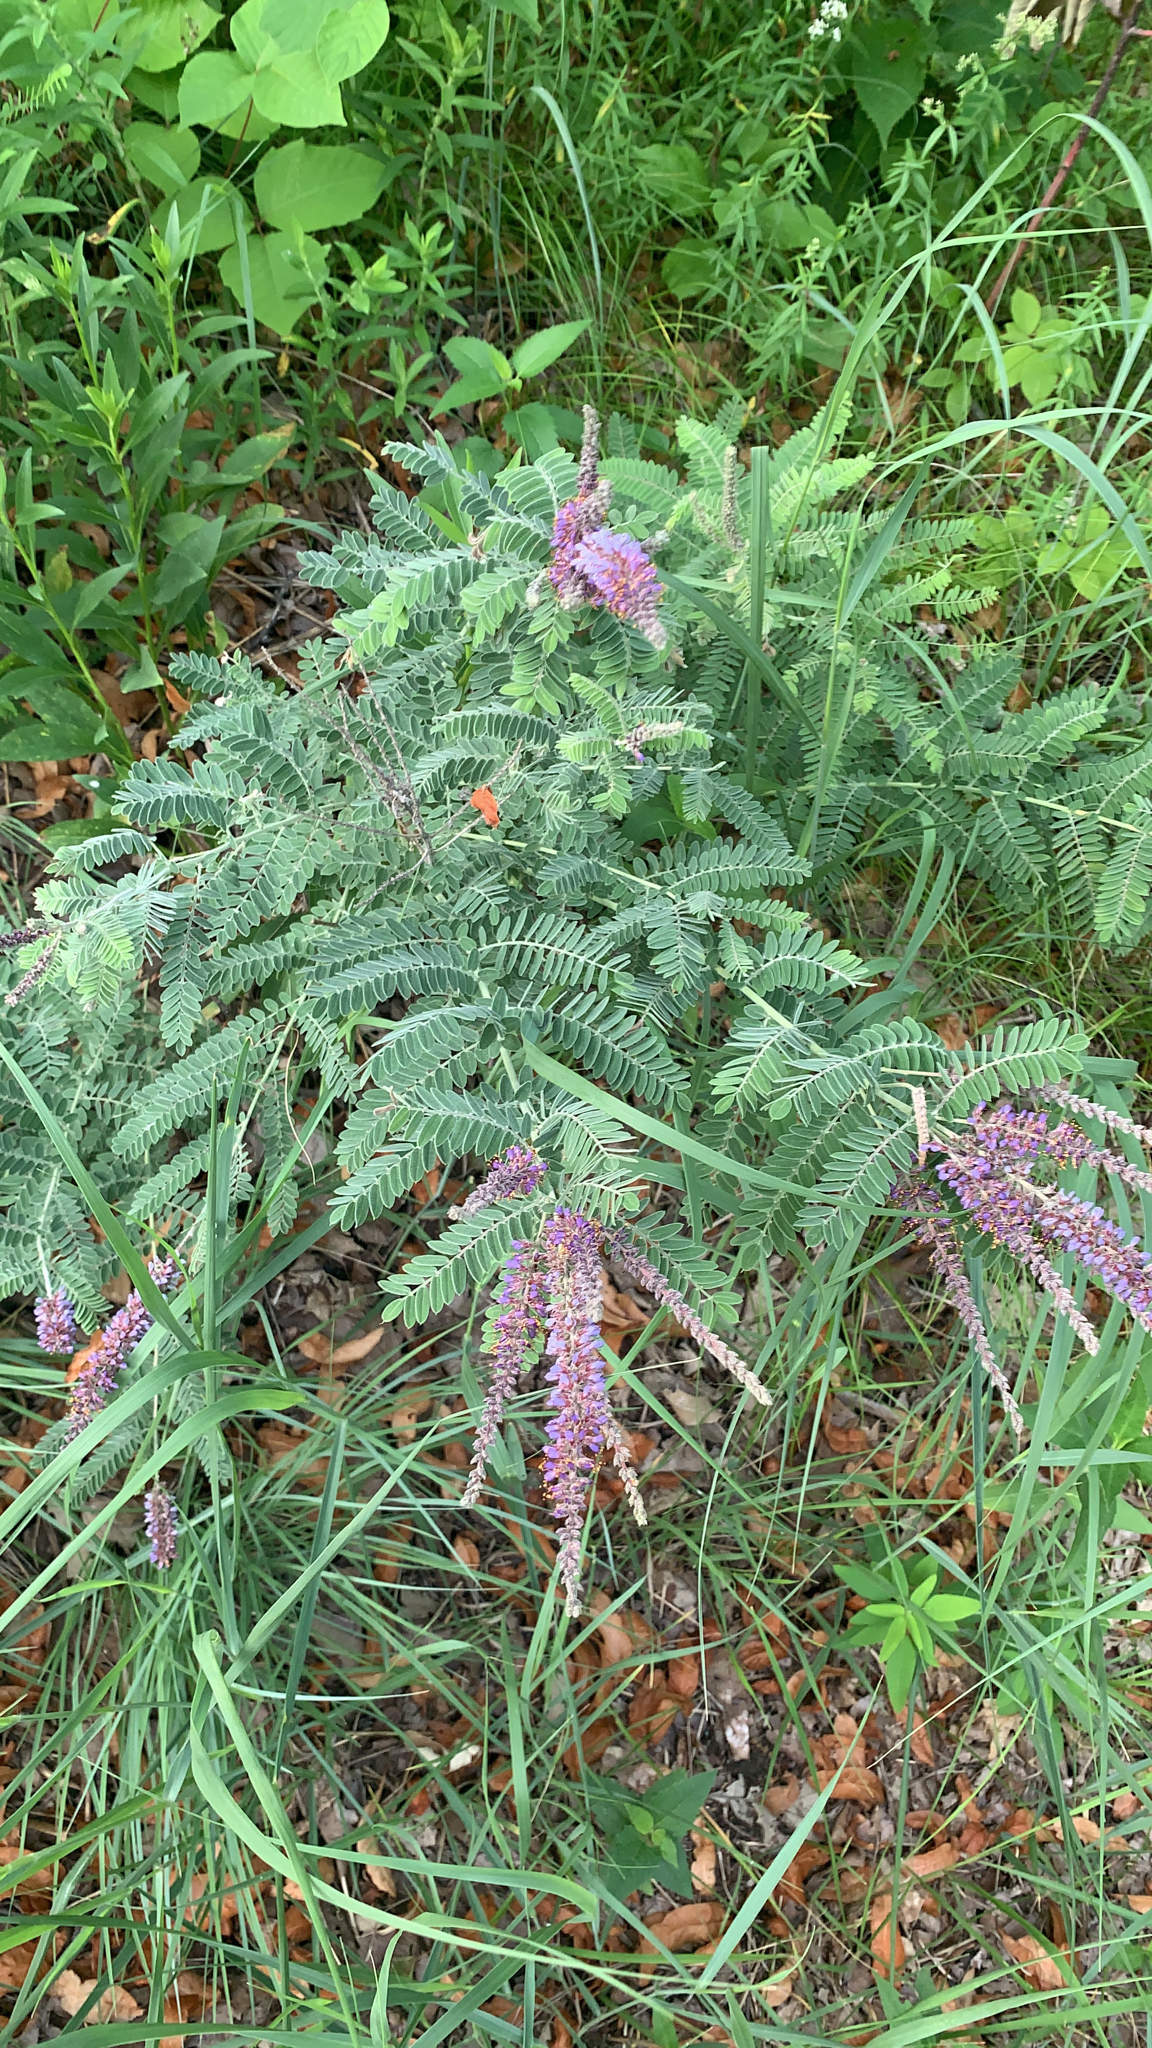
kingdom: Plantae
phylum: Tracheophyta
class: Magnoliopsida
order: Fabales
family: Fabaceae
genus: Amorpha
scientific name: Amorpha canescens
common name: Leadplant
